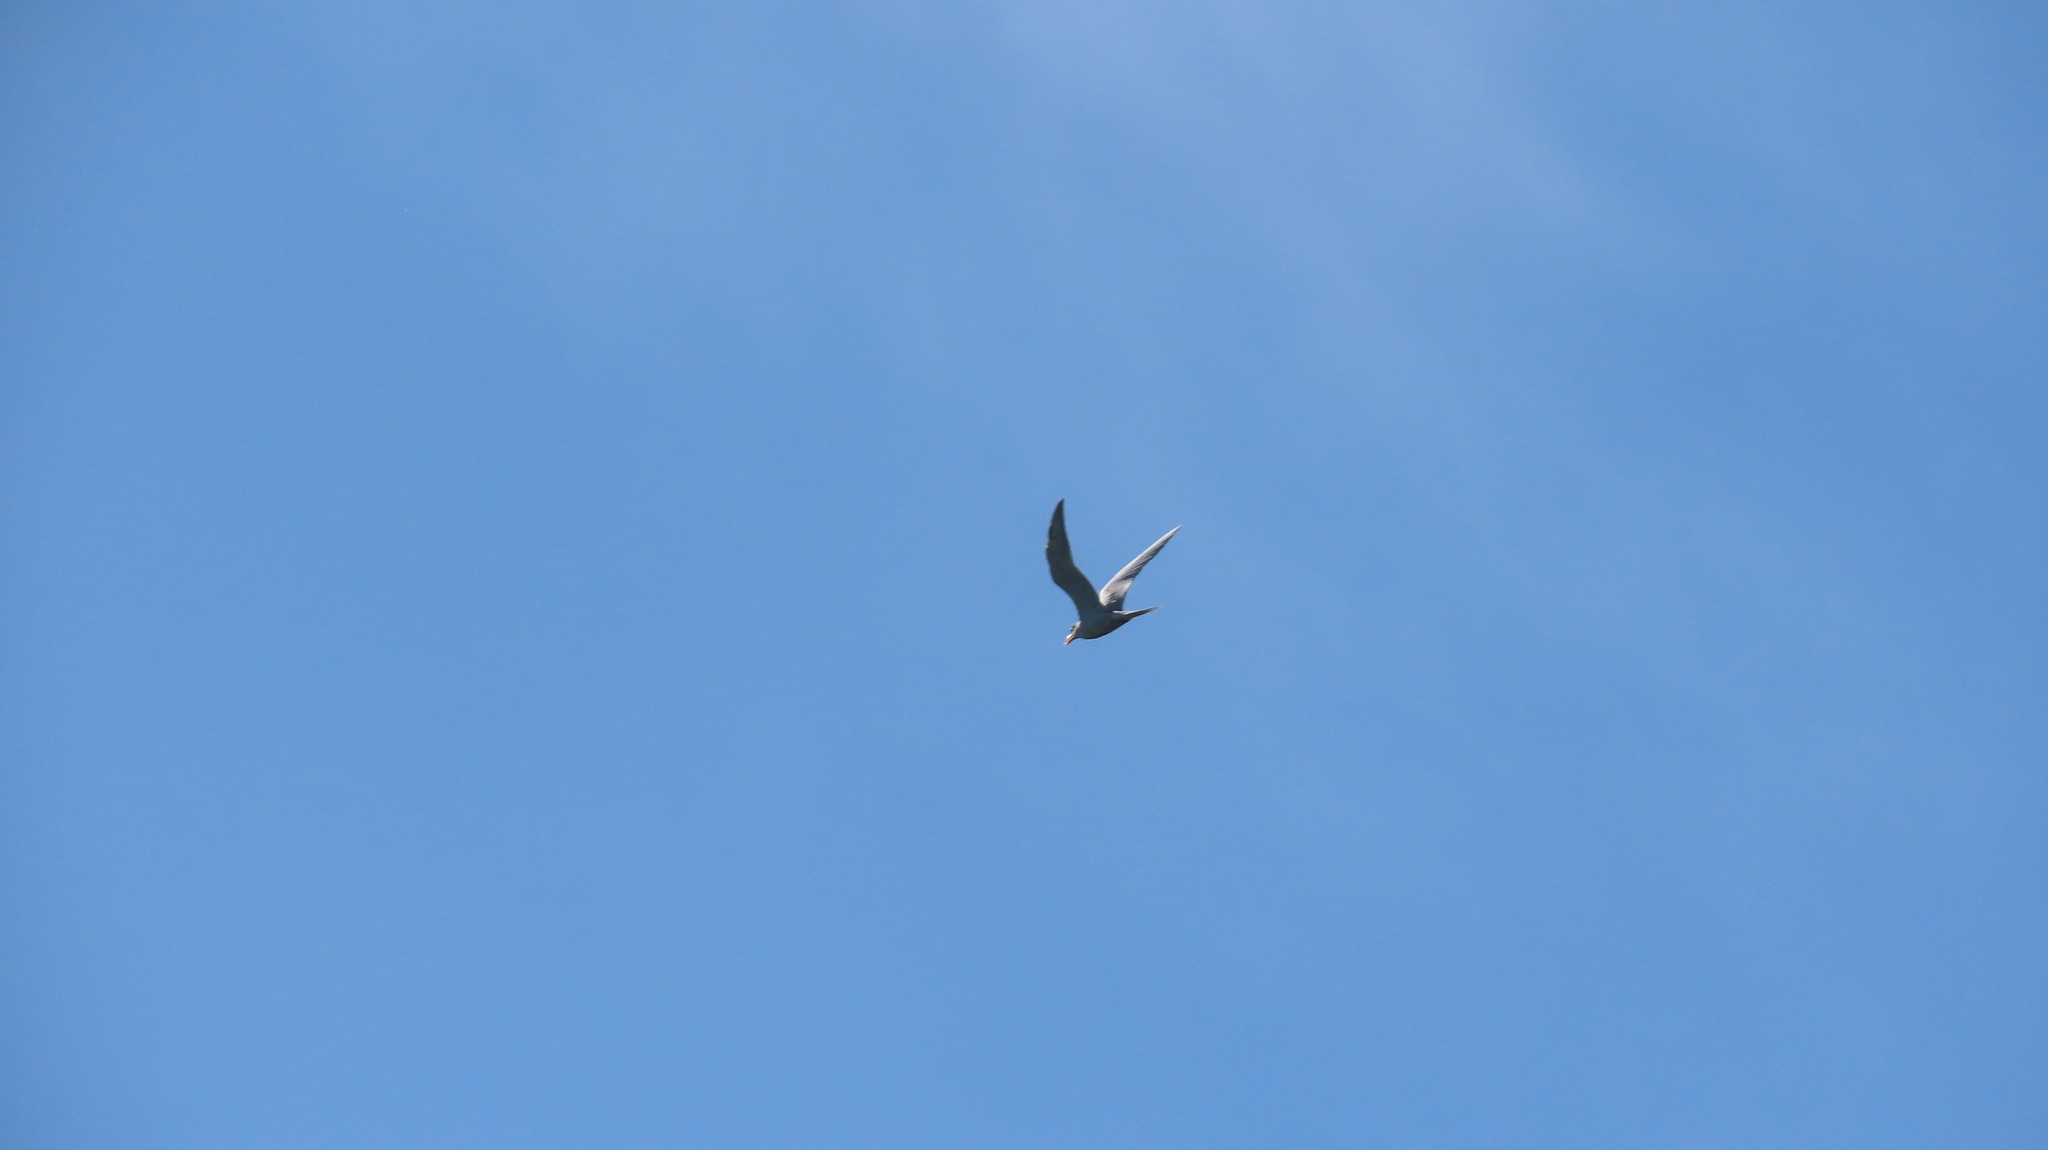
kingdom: Animalia
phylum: Chordata
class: Aves
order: Charadriiformes
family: Laridae
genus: Sterna
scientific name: Sterna aurantia
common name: River tern
